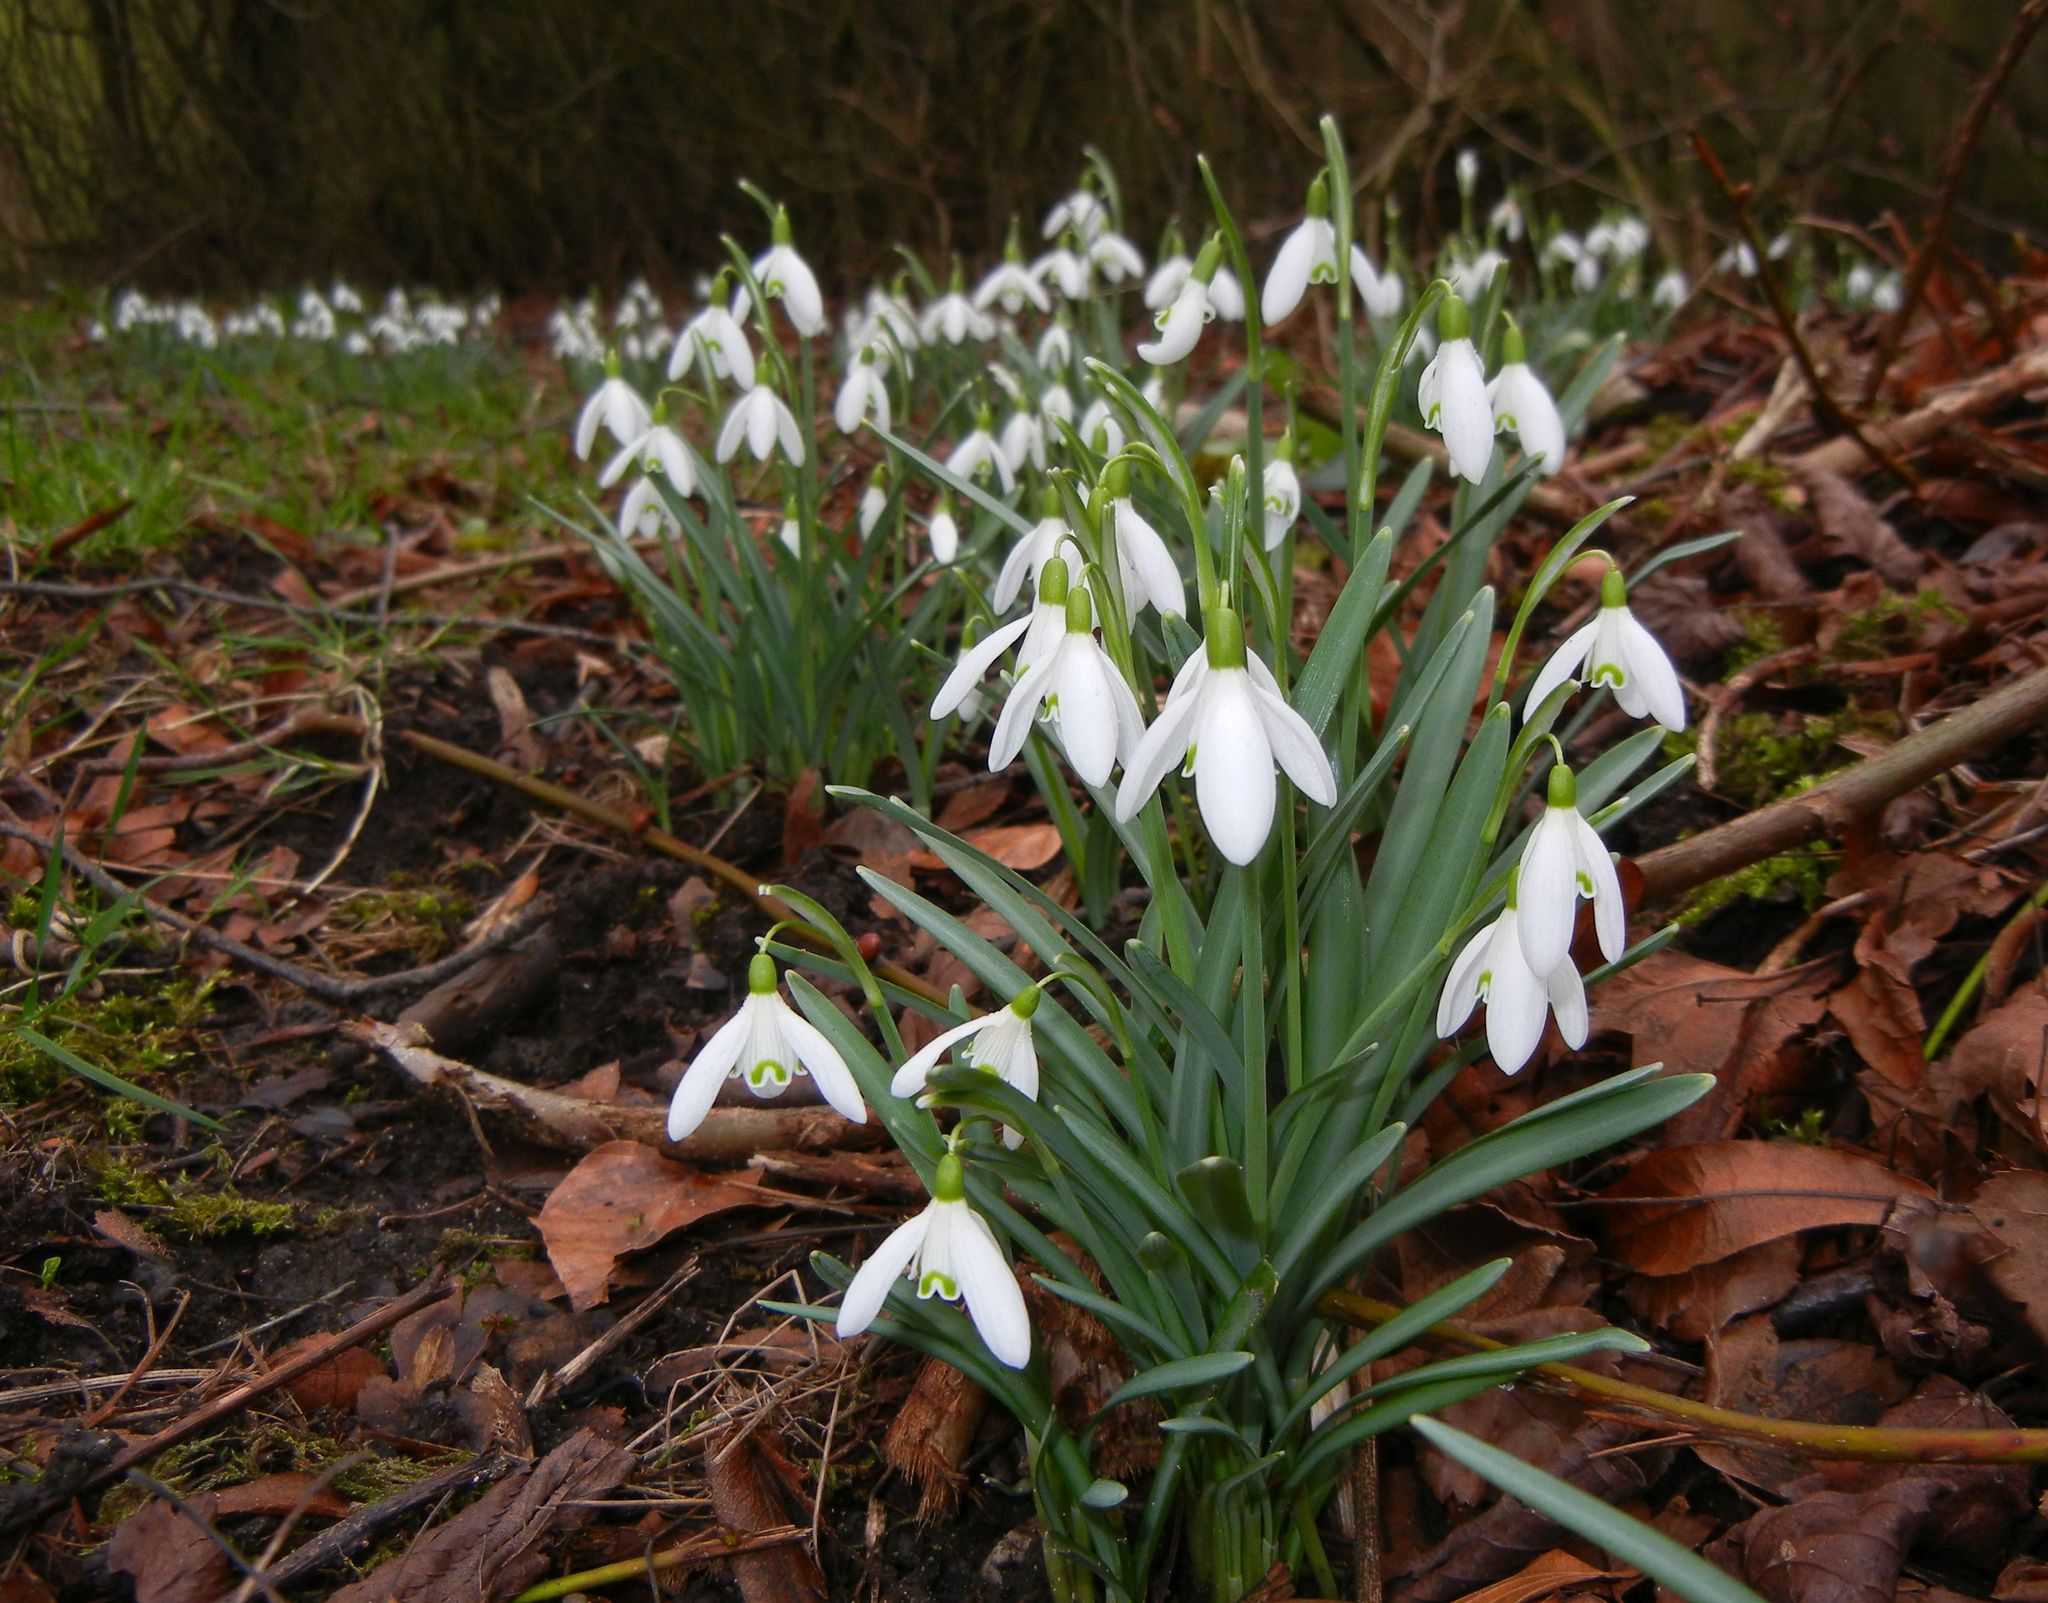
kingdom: Plantae
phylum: Tracheophyta
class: Liliopsida
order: Asparagales
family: Amaryllidaceae
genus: Galanthus
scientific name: Galanthus nivalis
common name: Snowdrop
